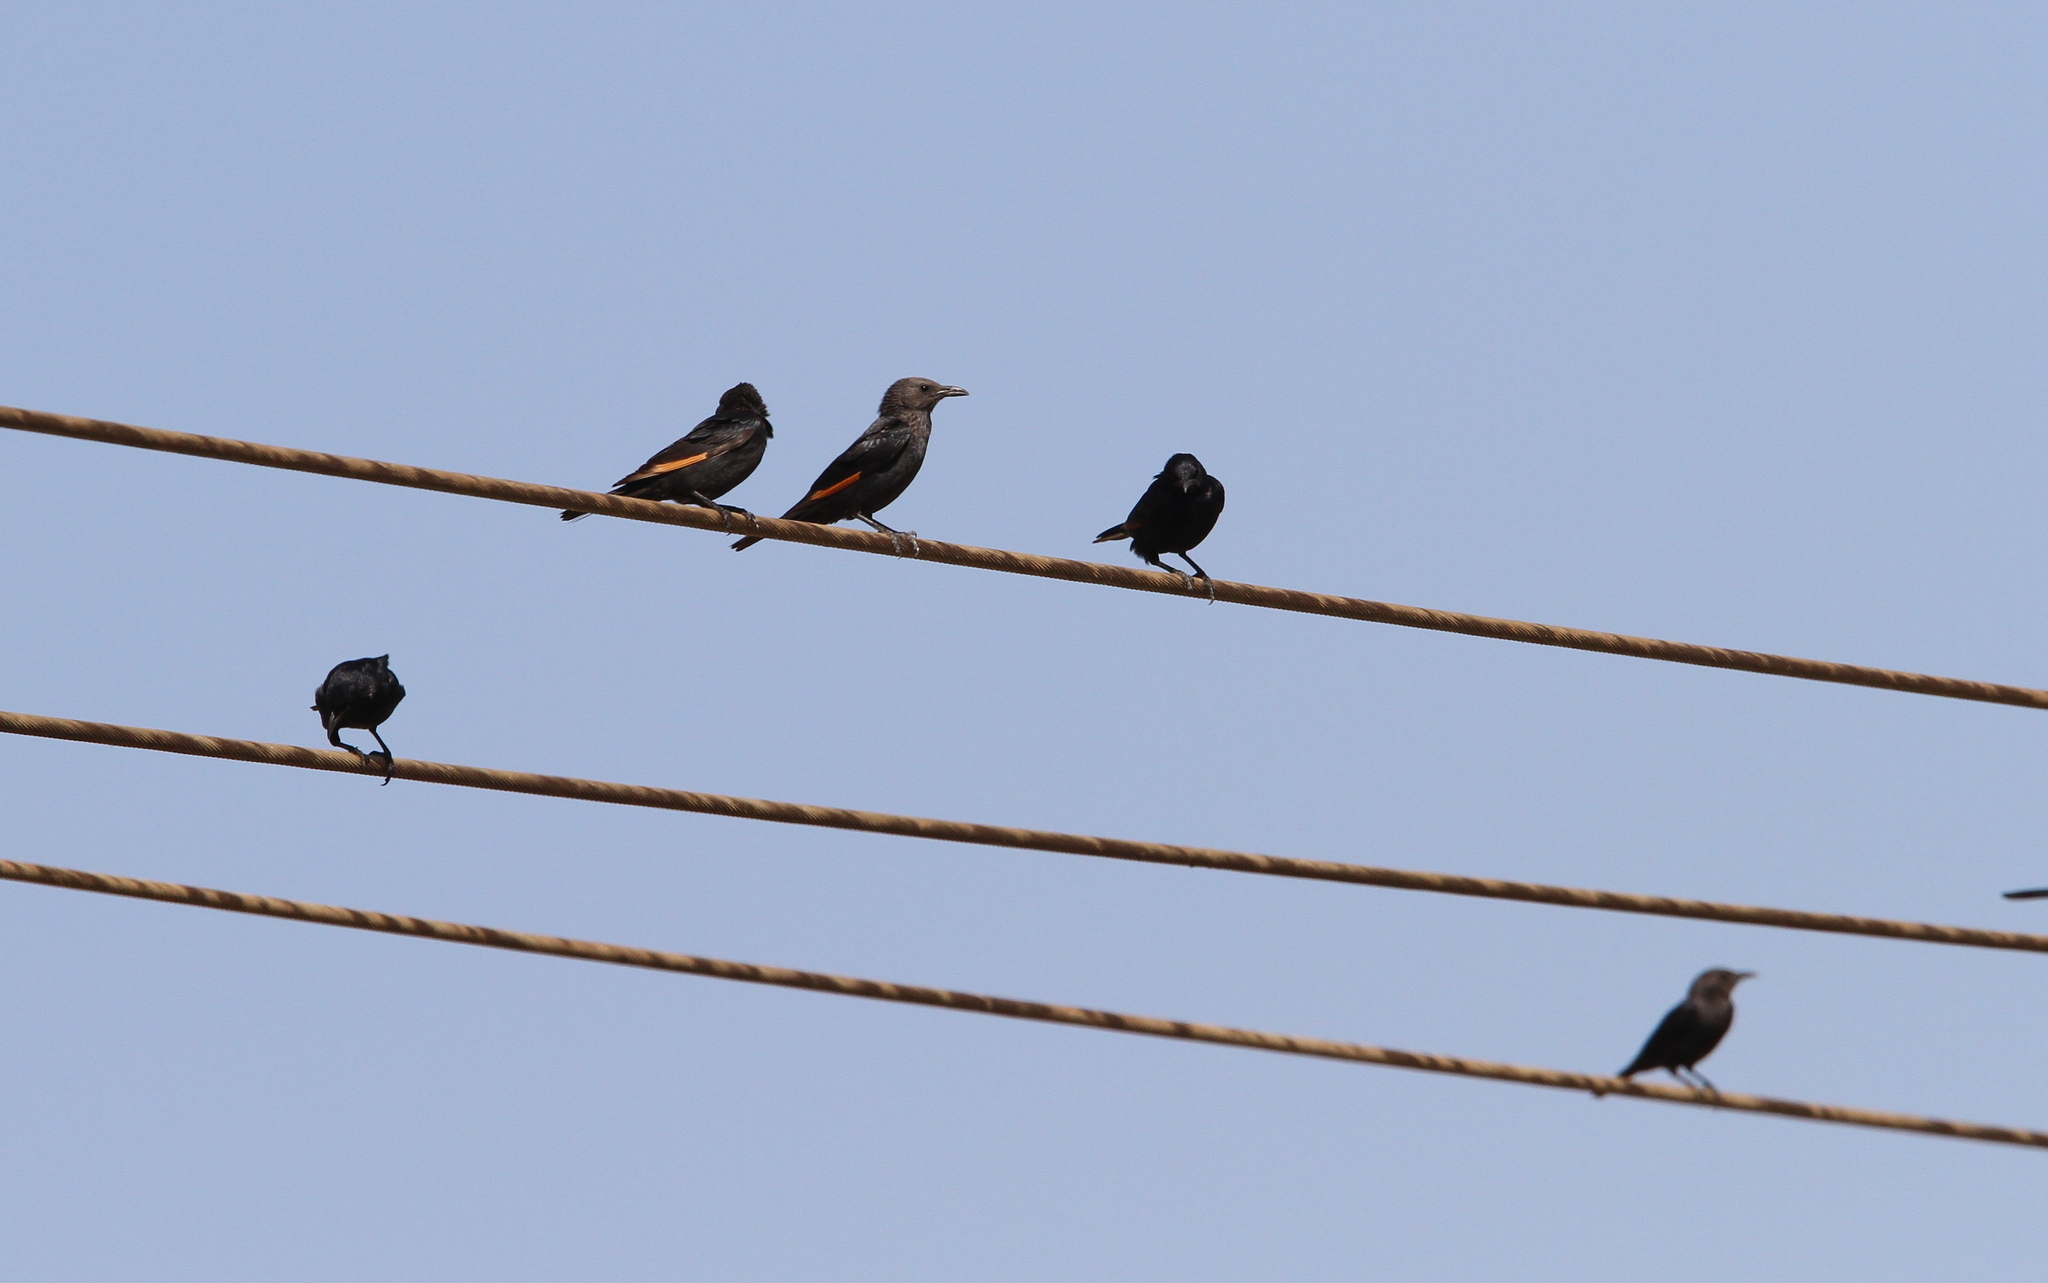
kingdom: Animalia
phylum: Chordata
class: Aves
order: Passeriformes
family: Sturnidae
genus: Onychognathus
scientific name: Onychognathus tristramii
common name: Tristram's starling
